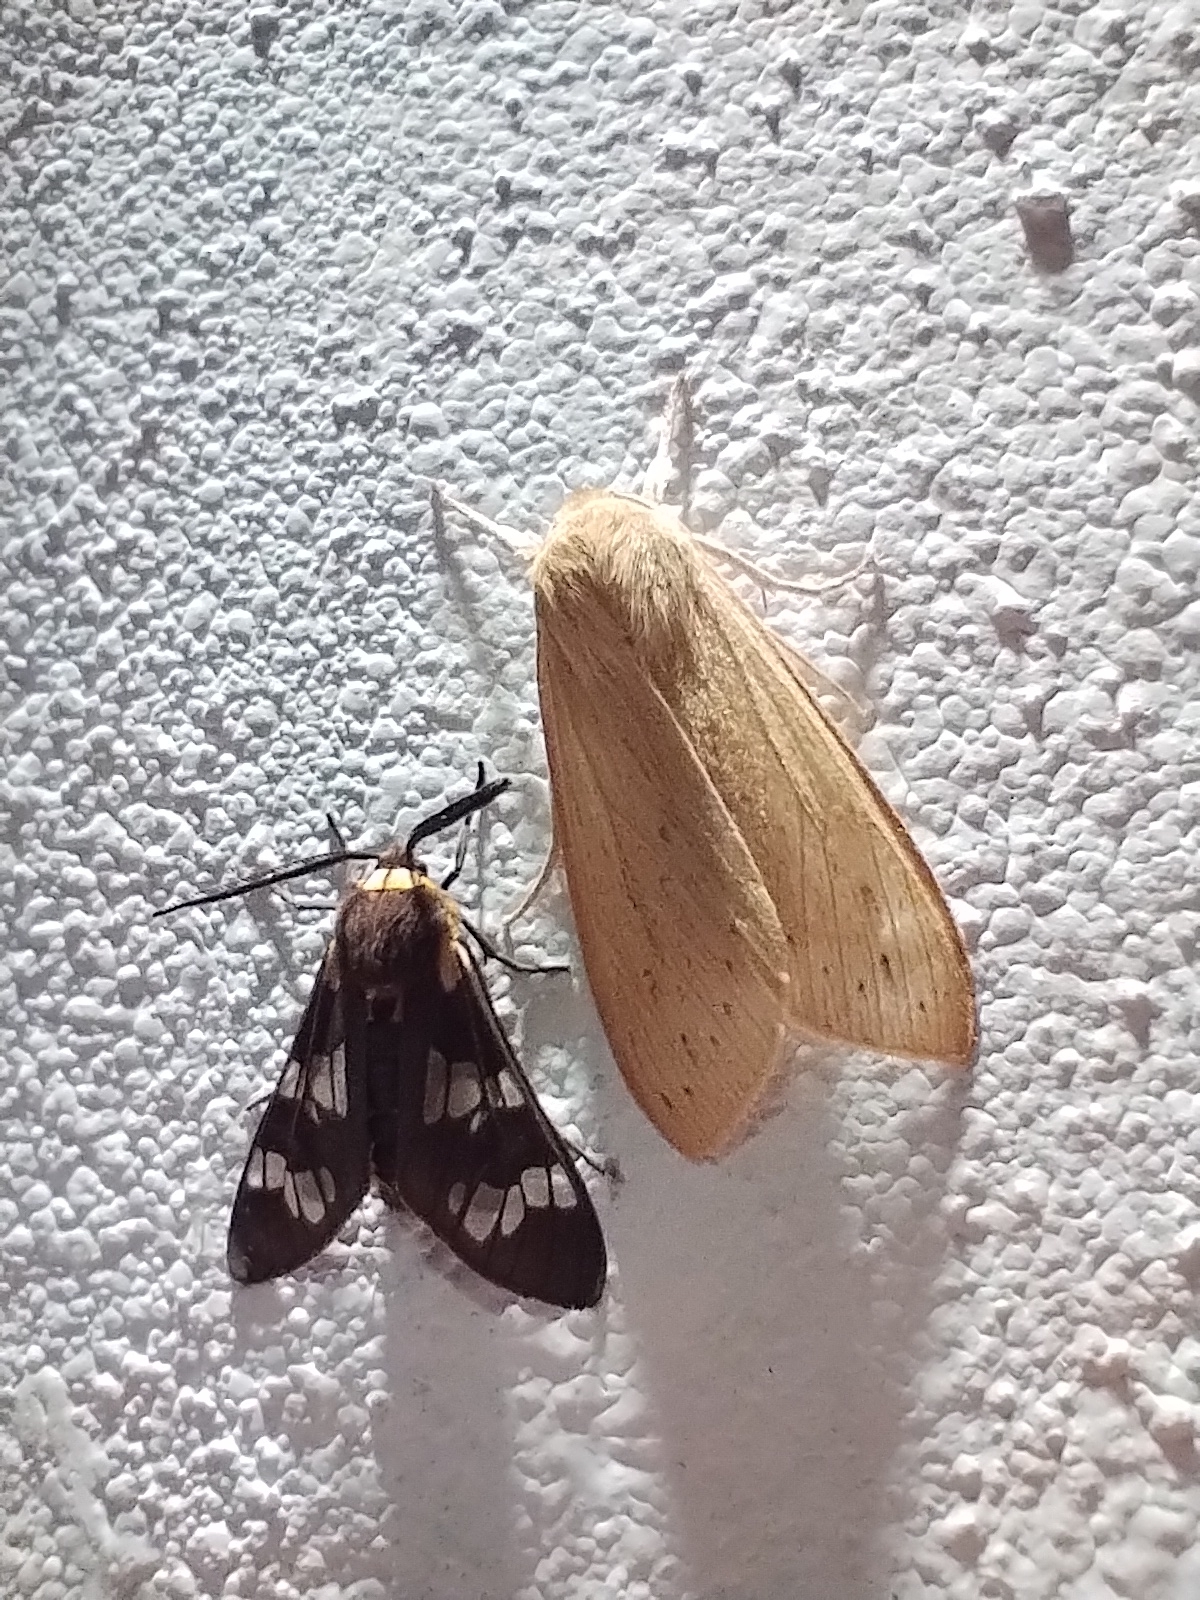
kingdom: Animalia
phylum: Arthropoda
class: Insecta
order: Lepidoptera
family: Erebidae
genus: Eurata
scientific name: Eurata
